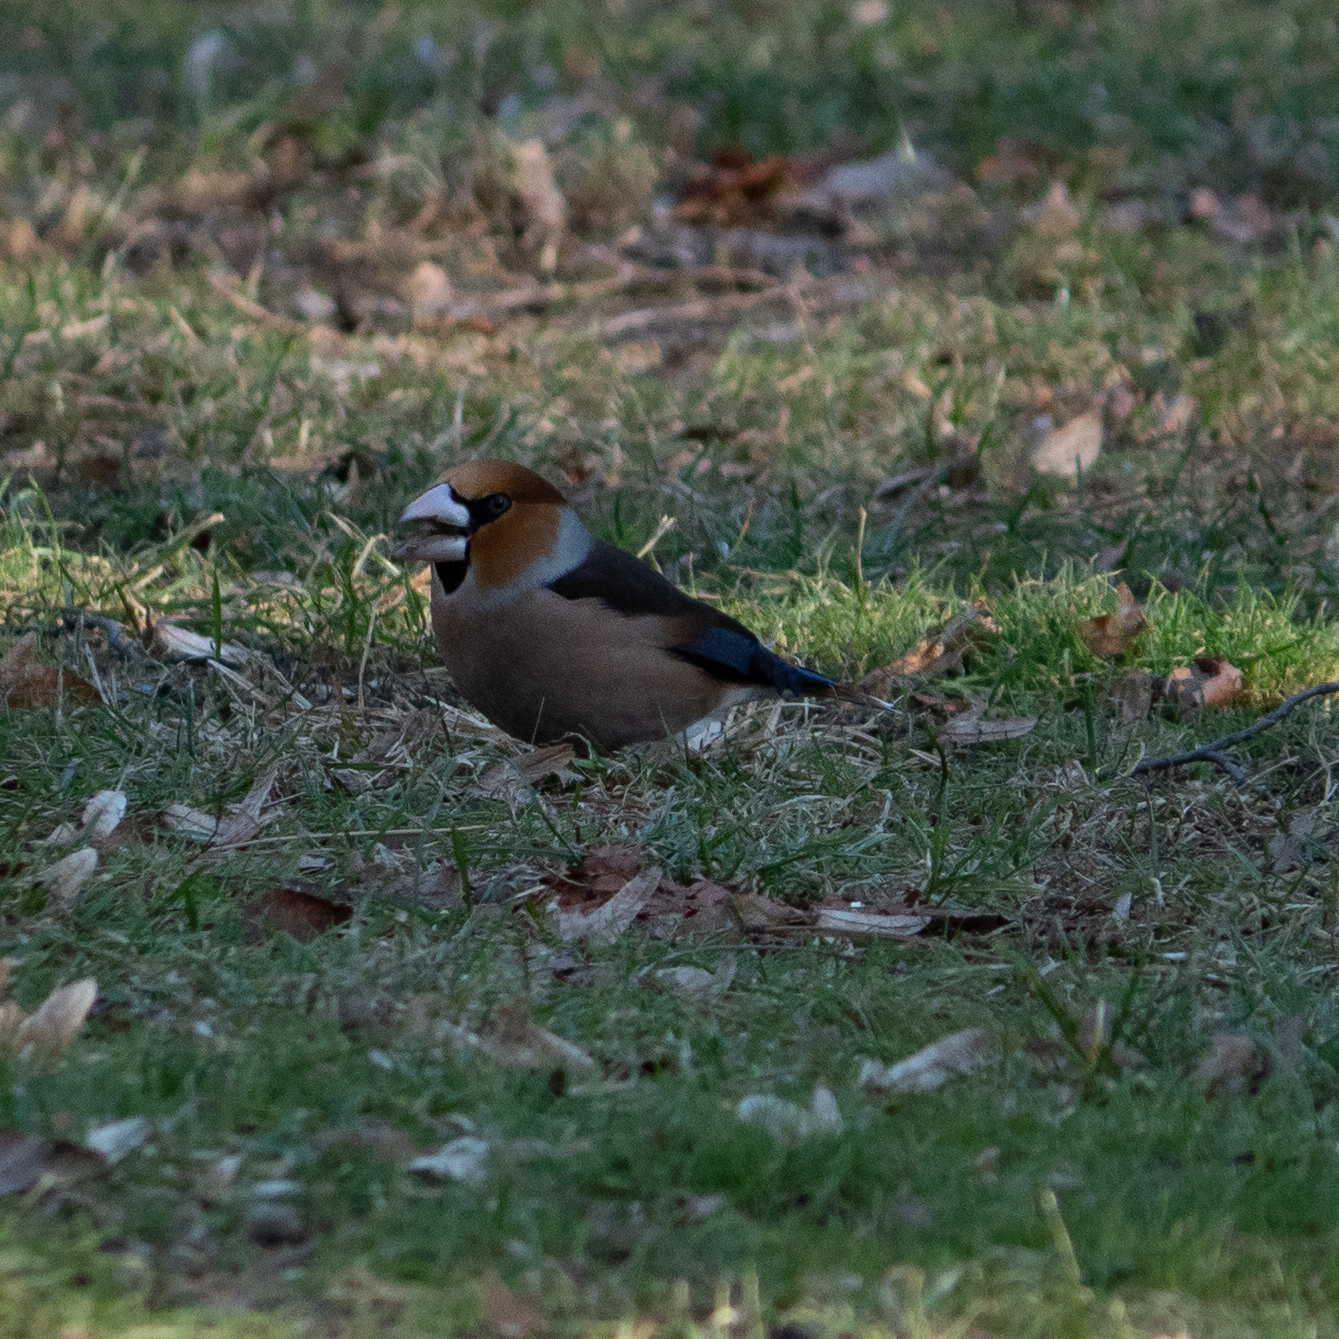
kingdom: Animalia
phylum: Chordata
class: Aves
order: Passeriformes
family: Fringillidae
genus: Coccothraustes
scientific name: Coccothraustes coccothraustes
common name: Hawfinch
